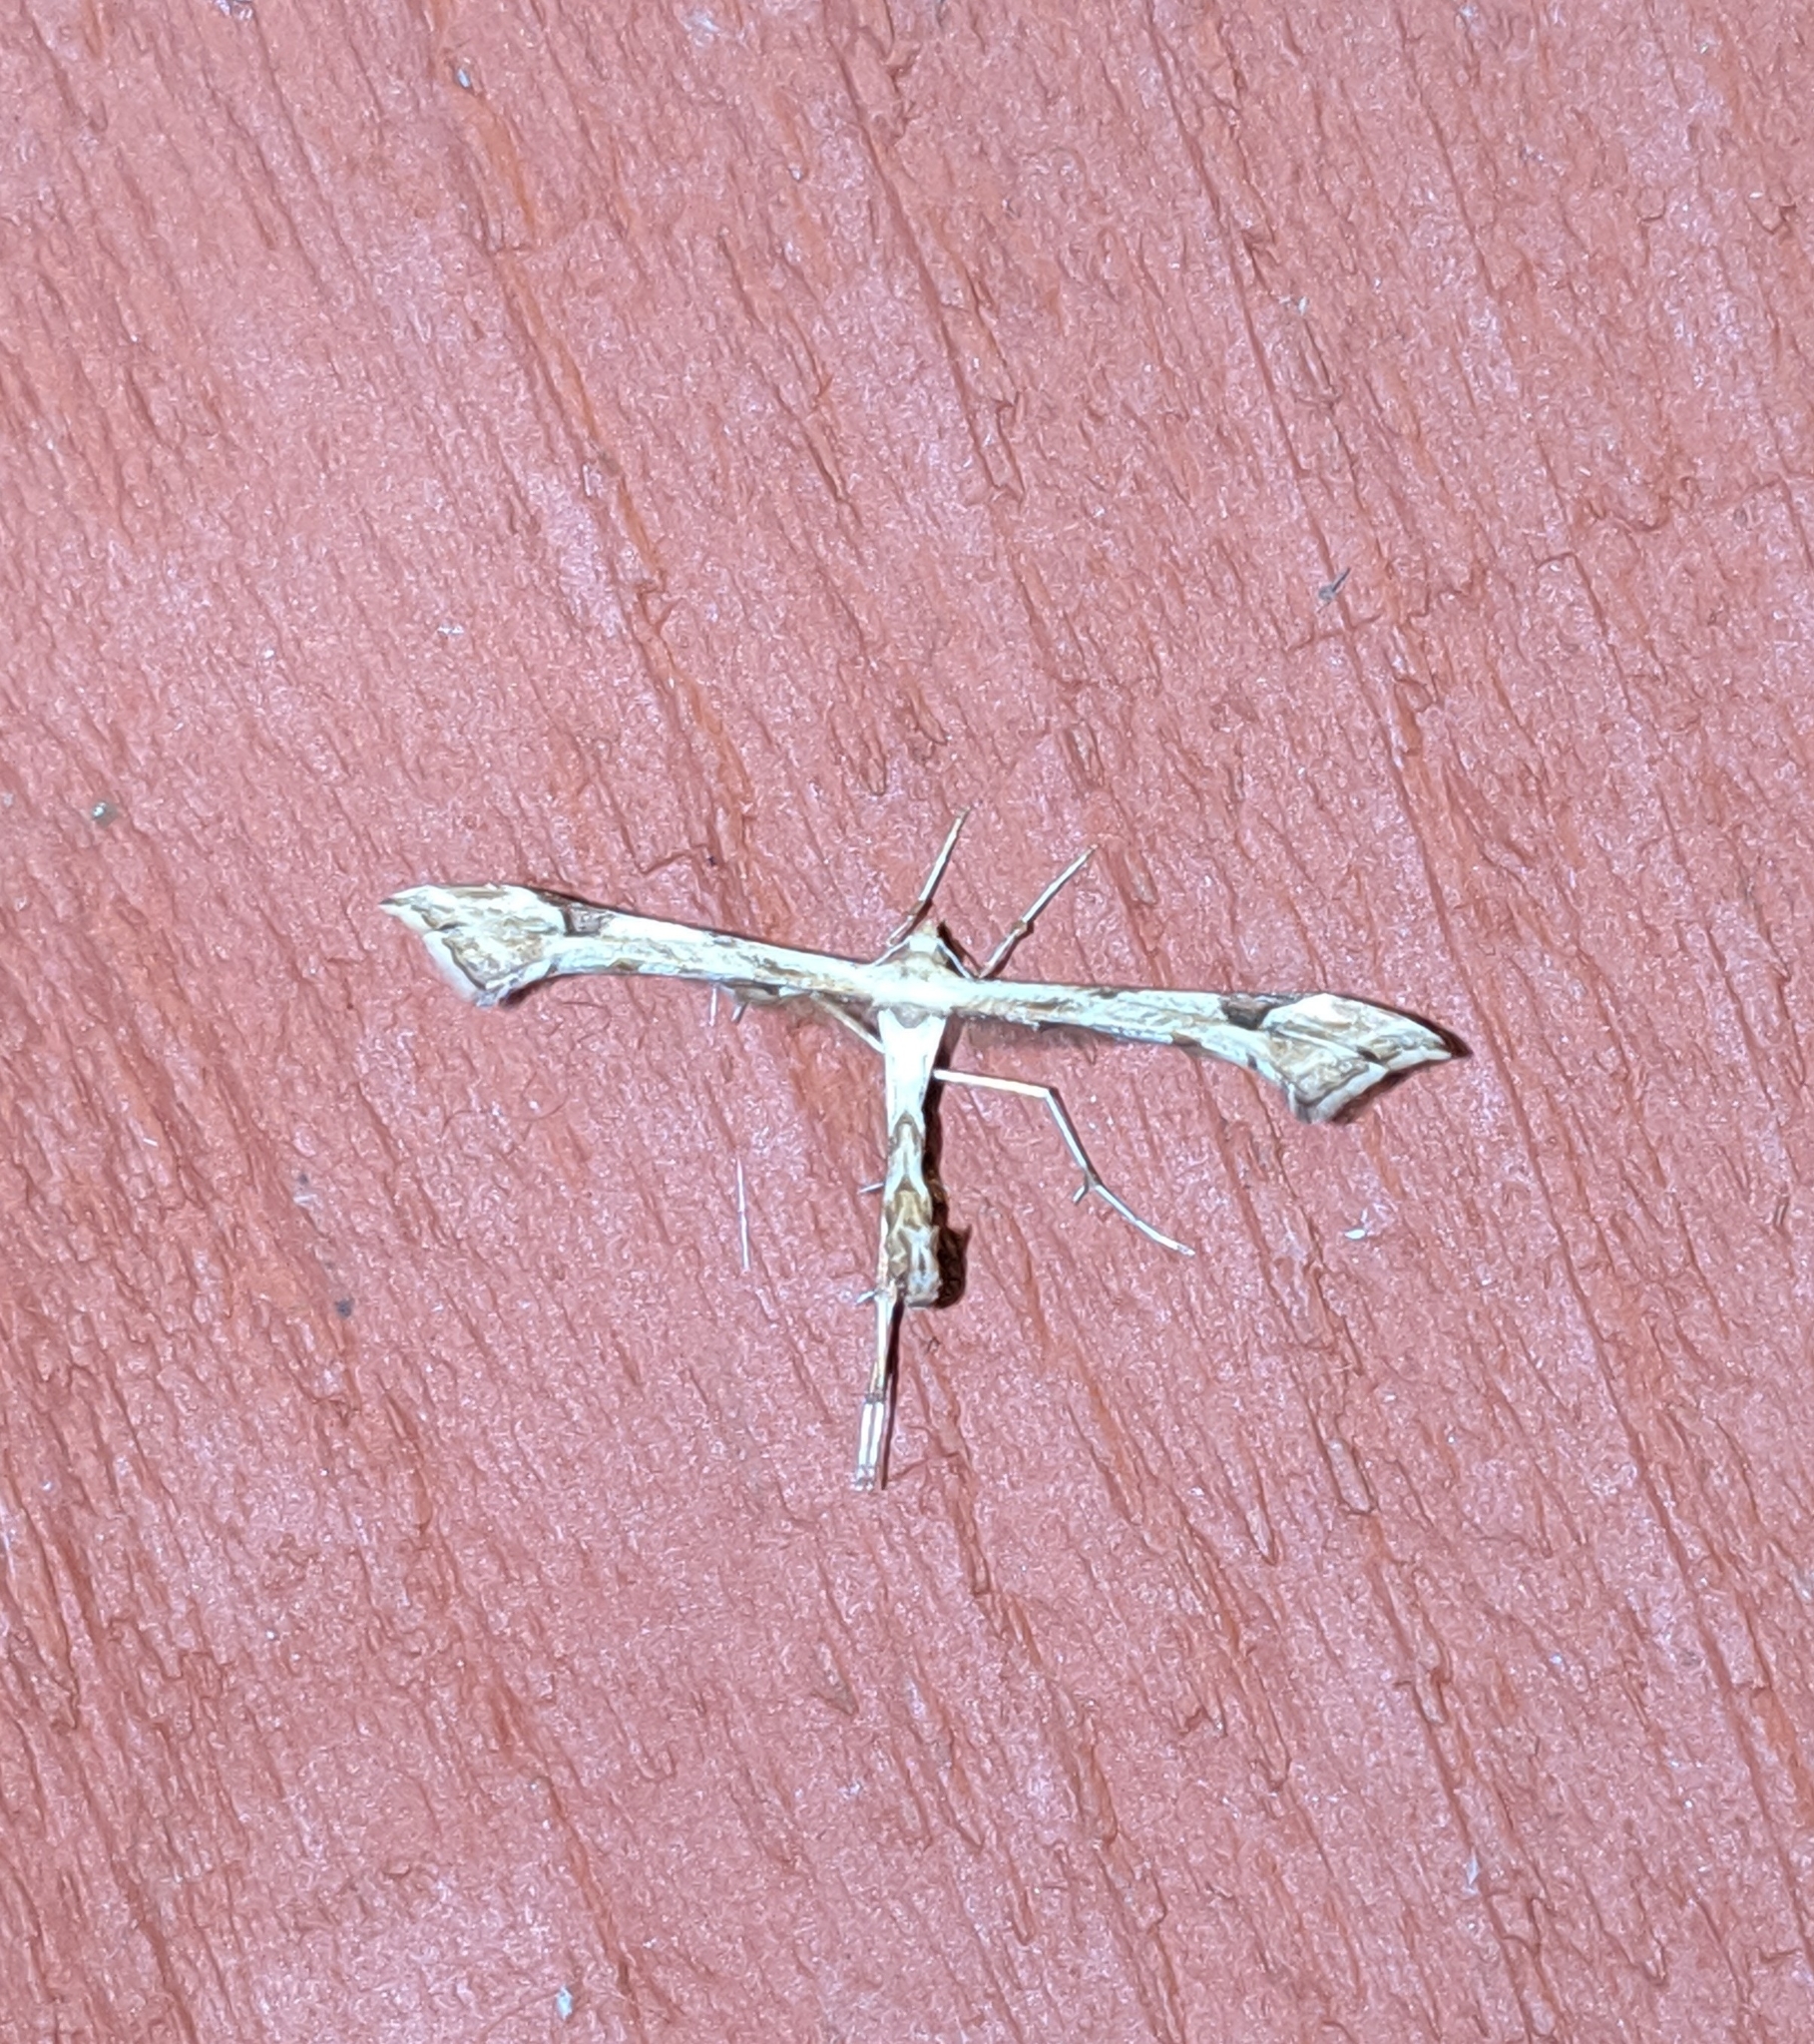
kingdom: Animalia
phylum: Arthropoda
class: Insecta
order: Lepidoptera
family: Pterophoridae
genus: Platyptilia
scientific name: Platyptilia carduidactylus
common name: Artichoke plume moth
